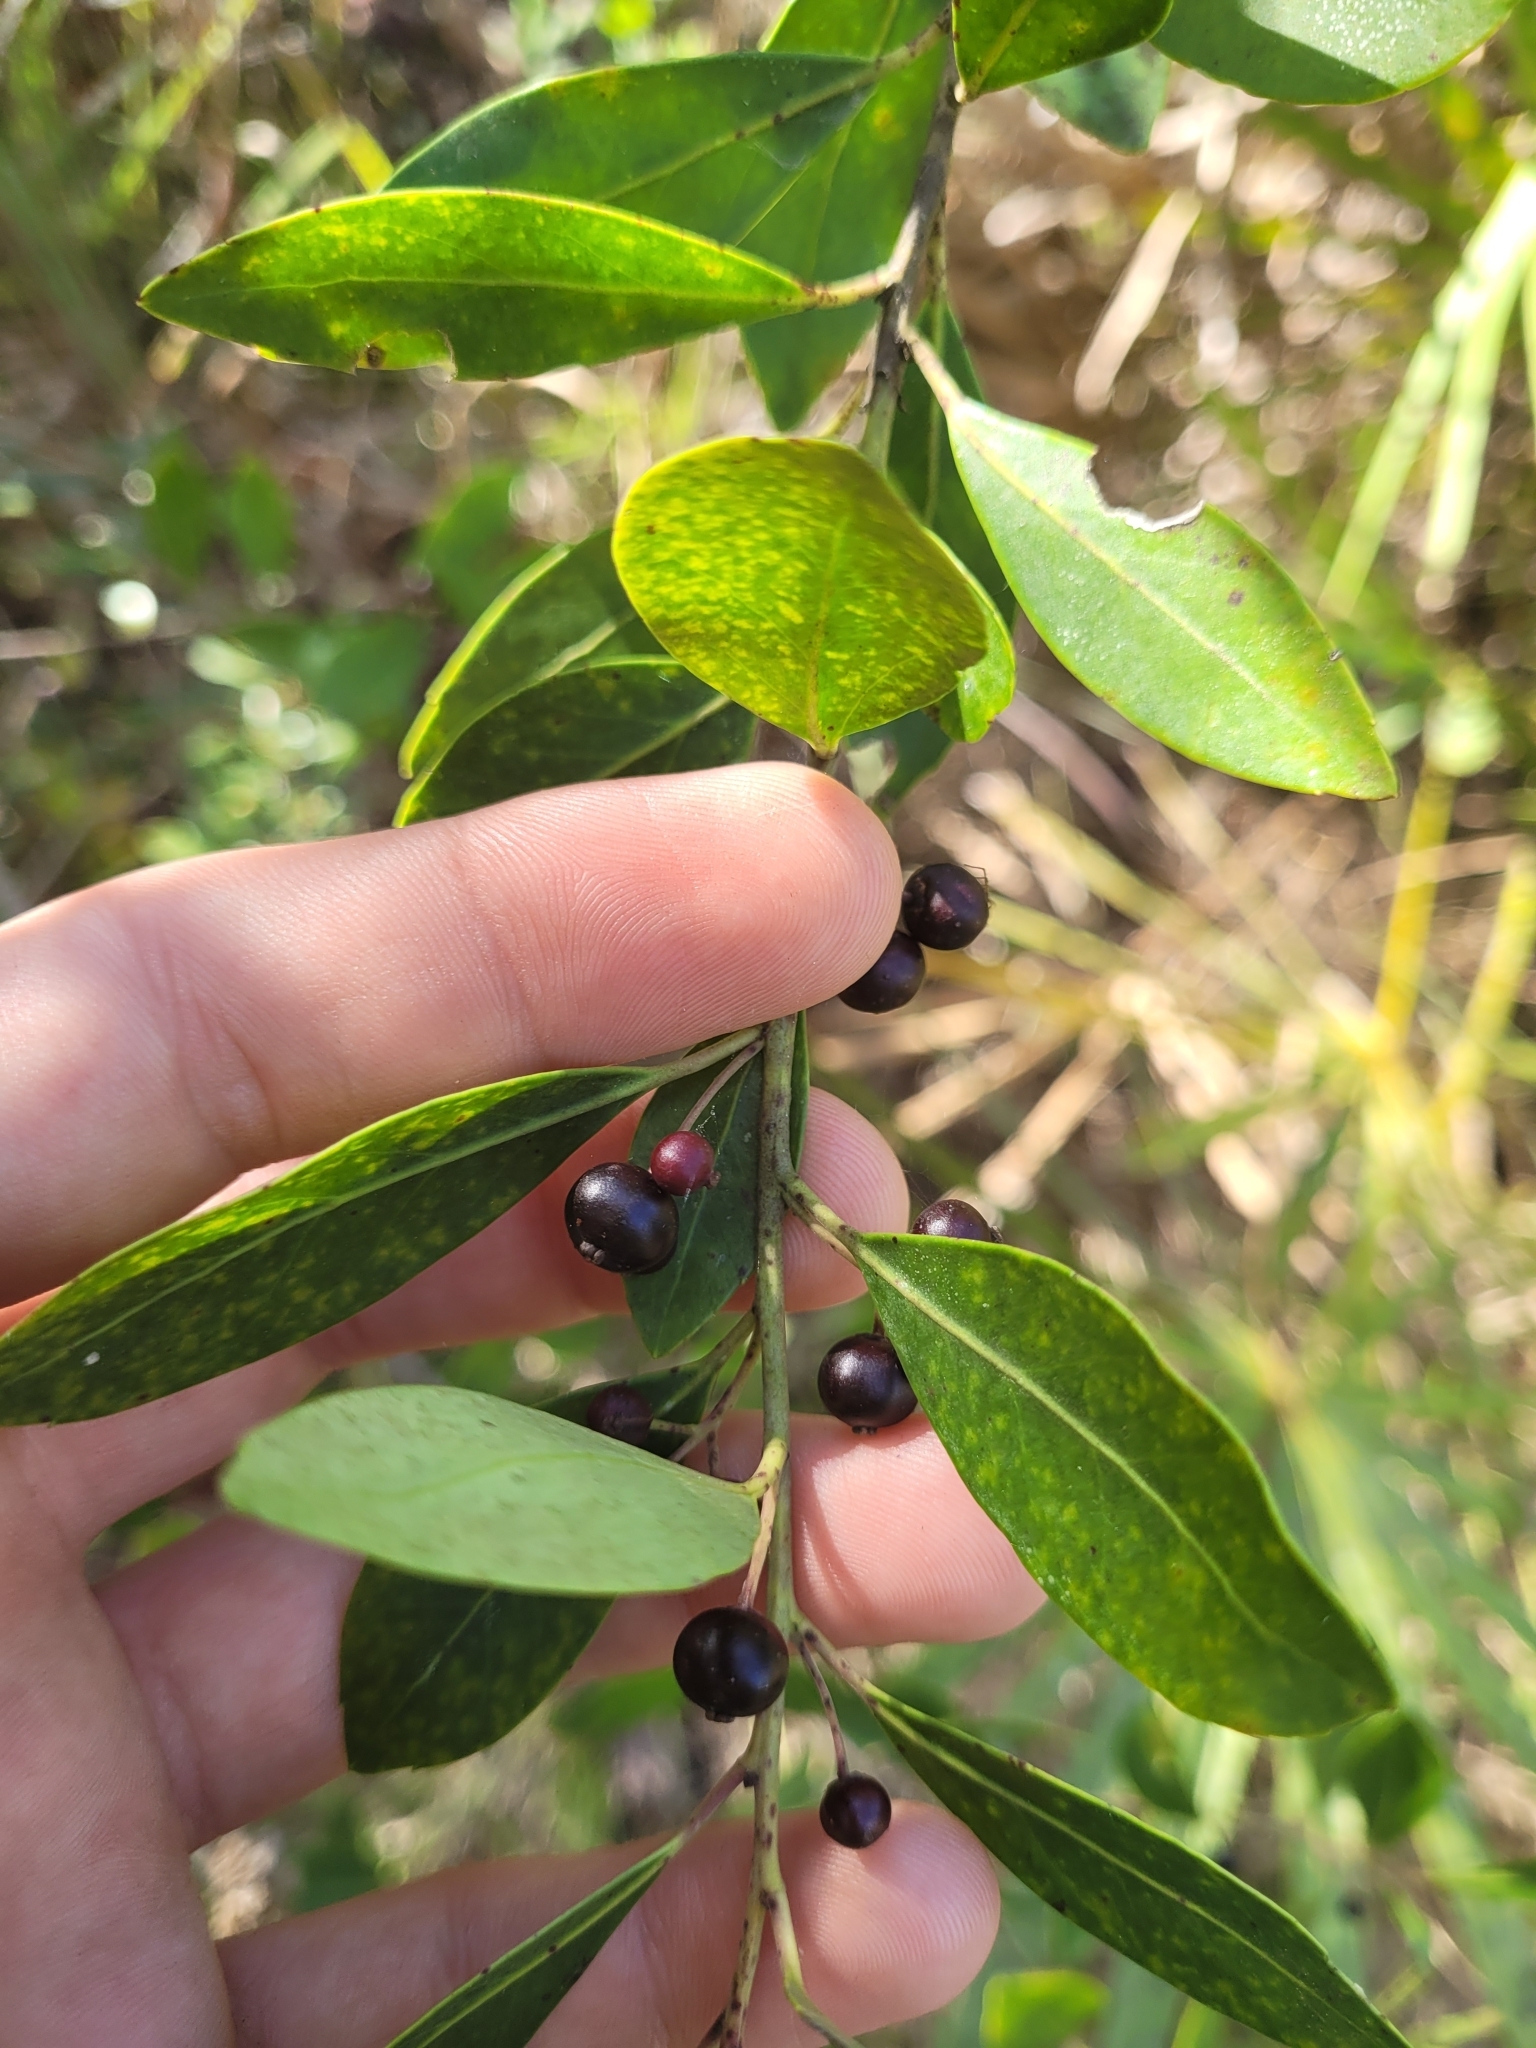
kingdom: Plantae
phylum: Tracheophyta
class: Magnoliopsida
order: Aquifoliales
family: Aquifoliaceae
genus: Ilex
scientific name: Ilex glabra
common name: Bitter gallberry
